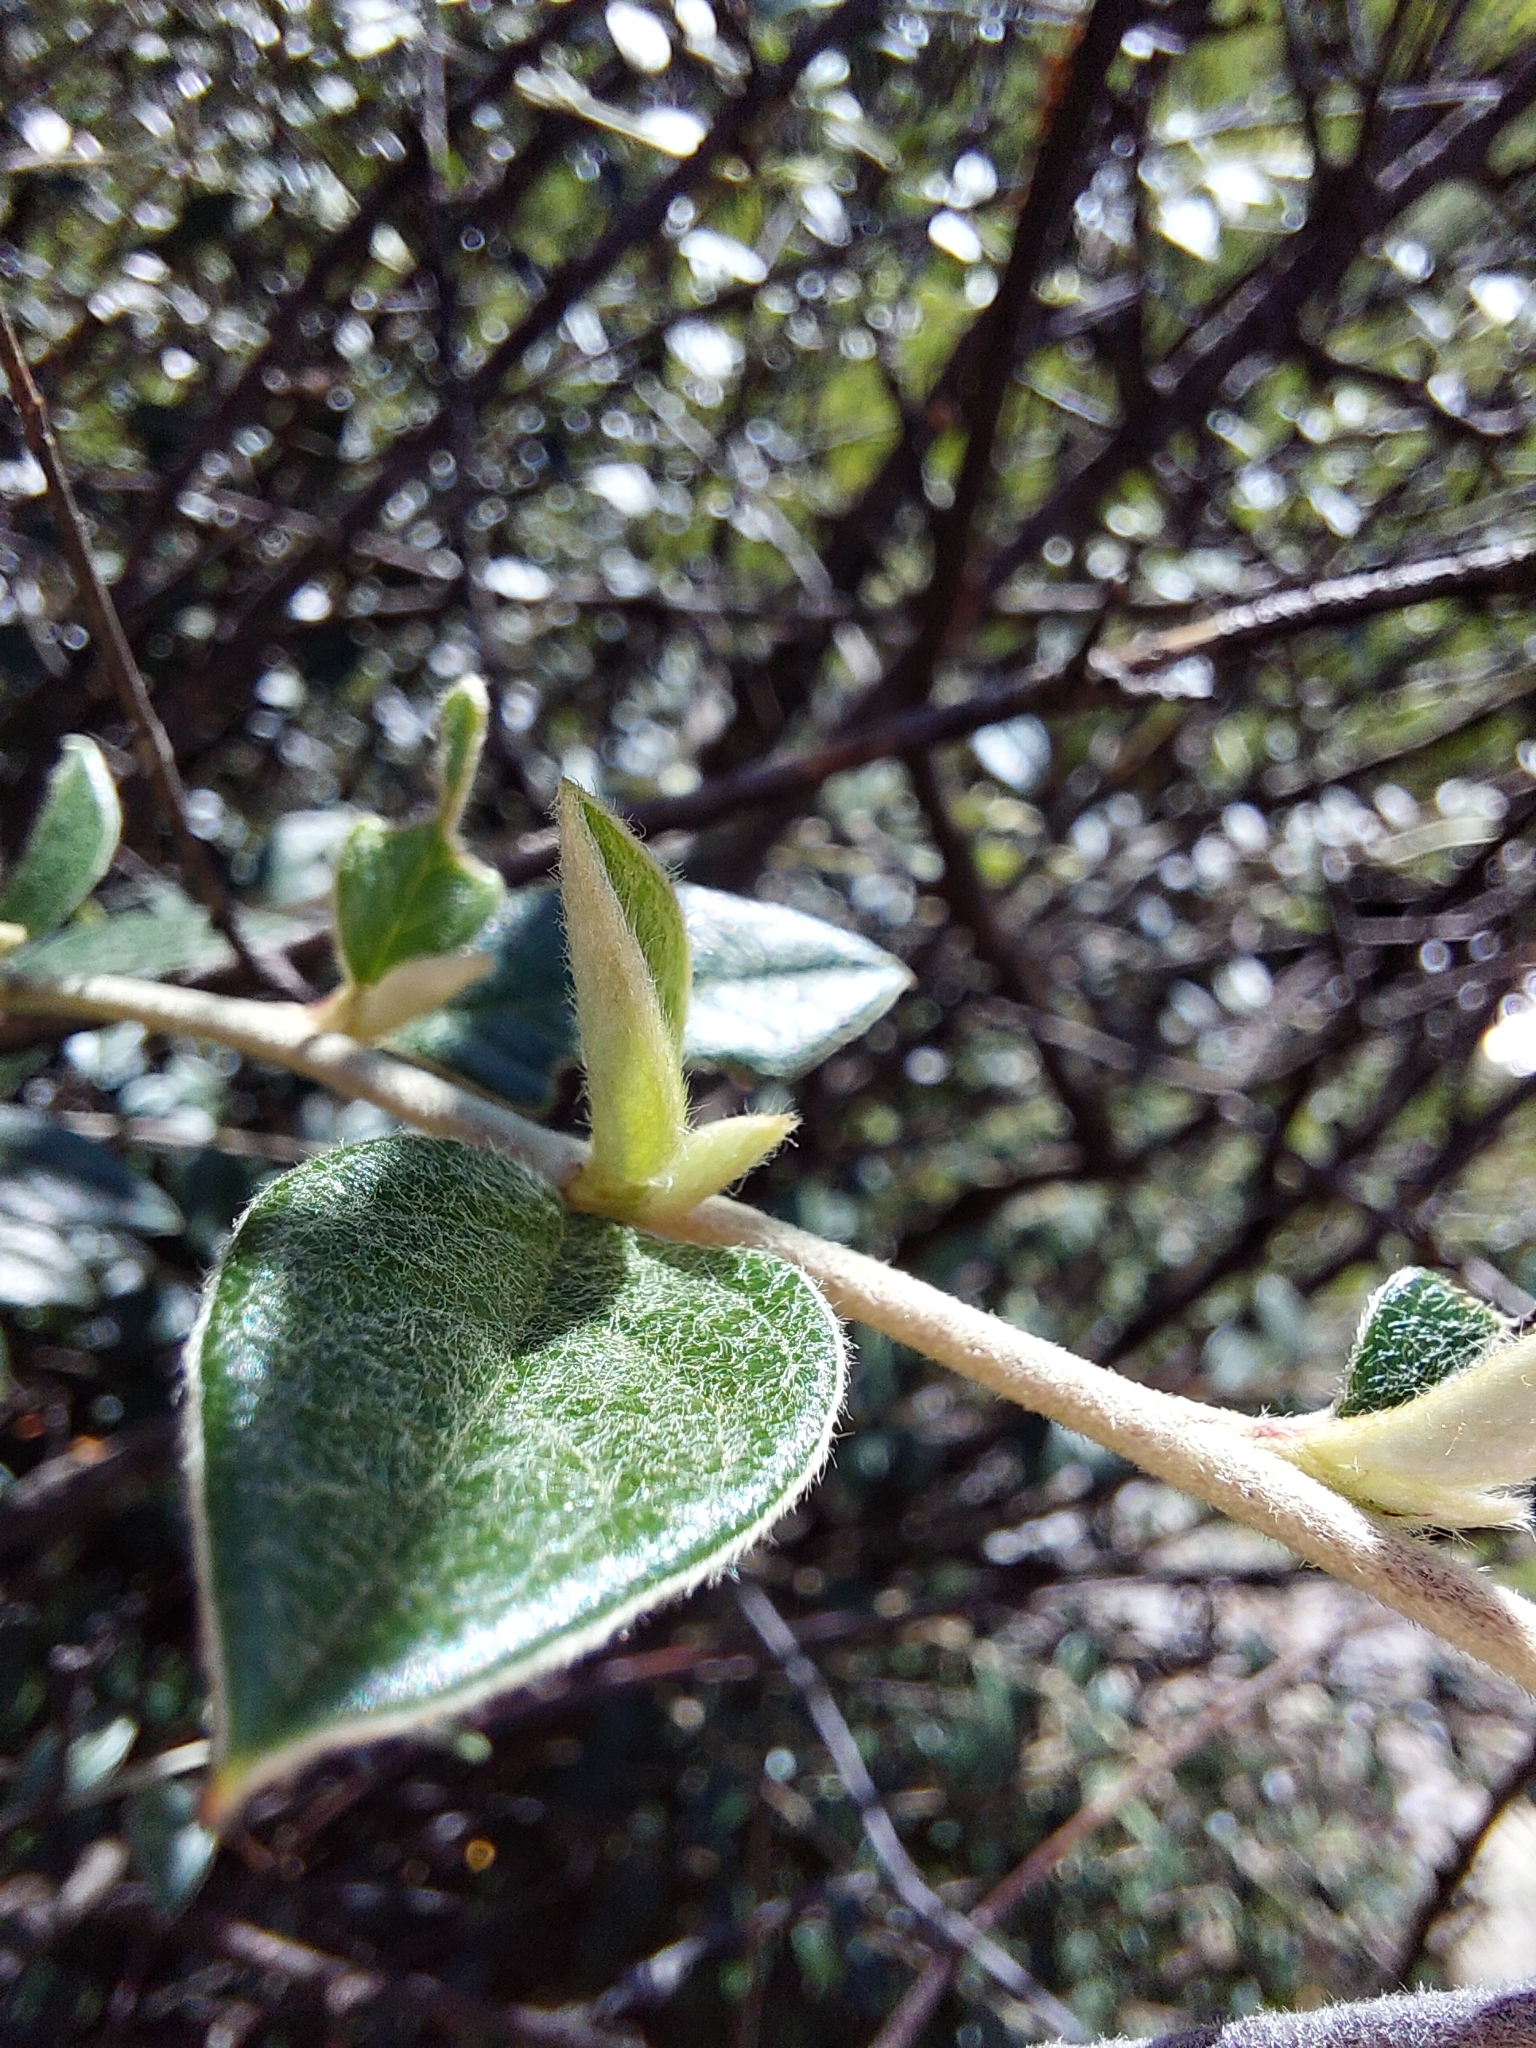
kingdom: Plantae
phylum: Tracheophyta
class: Magnoliopsida
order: Rosales
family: Rosaceae
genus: Cotoneaster
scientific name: Cotoneaster franchetii
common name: Franchet's cotoneaster
